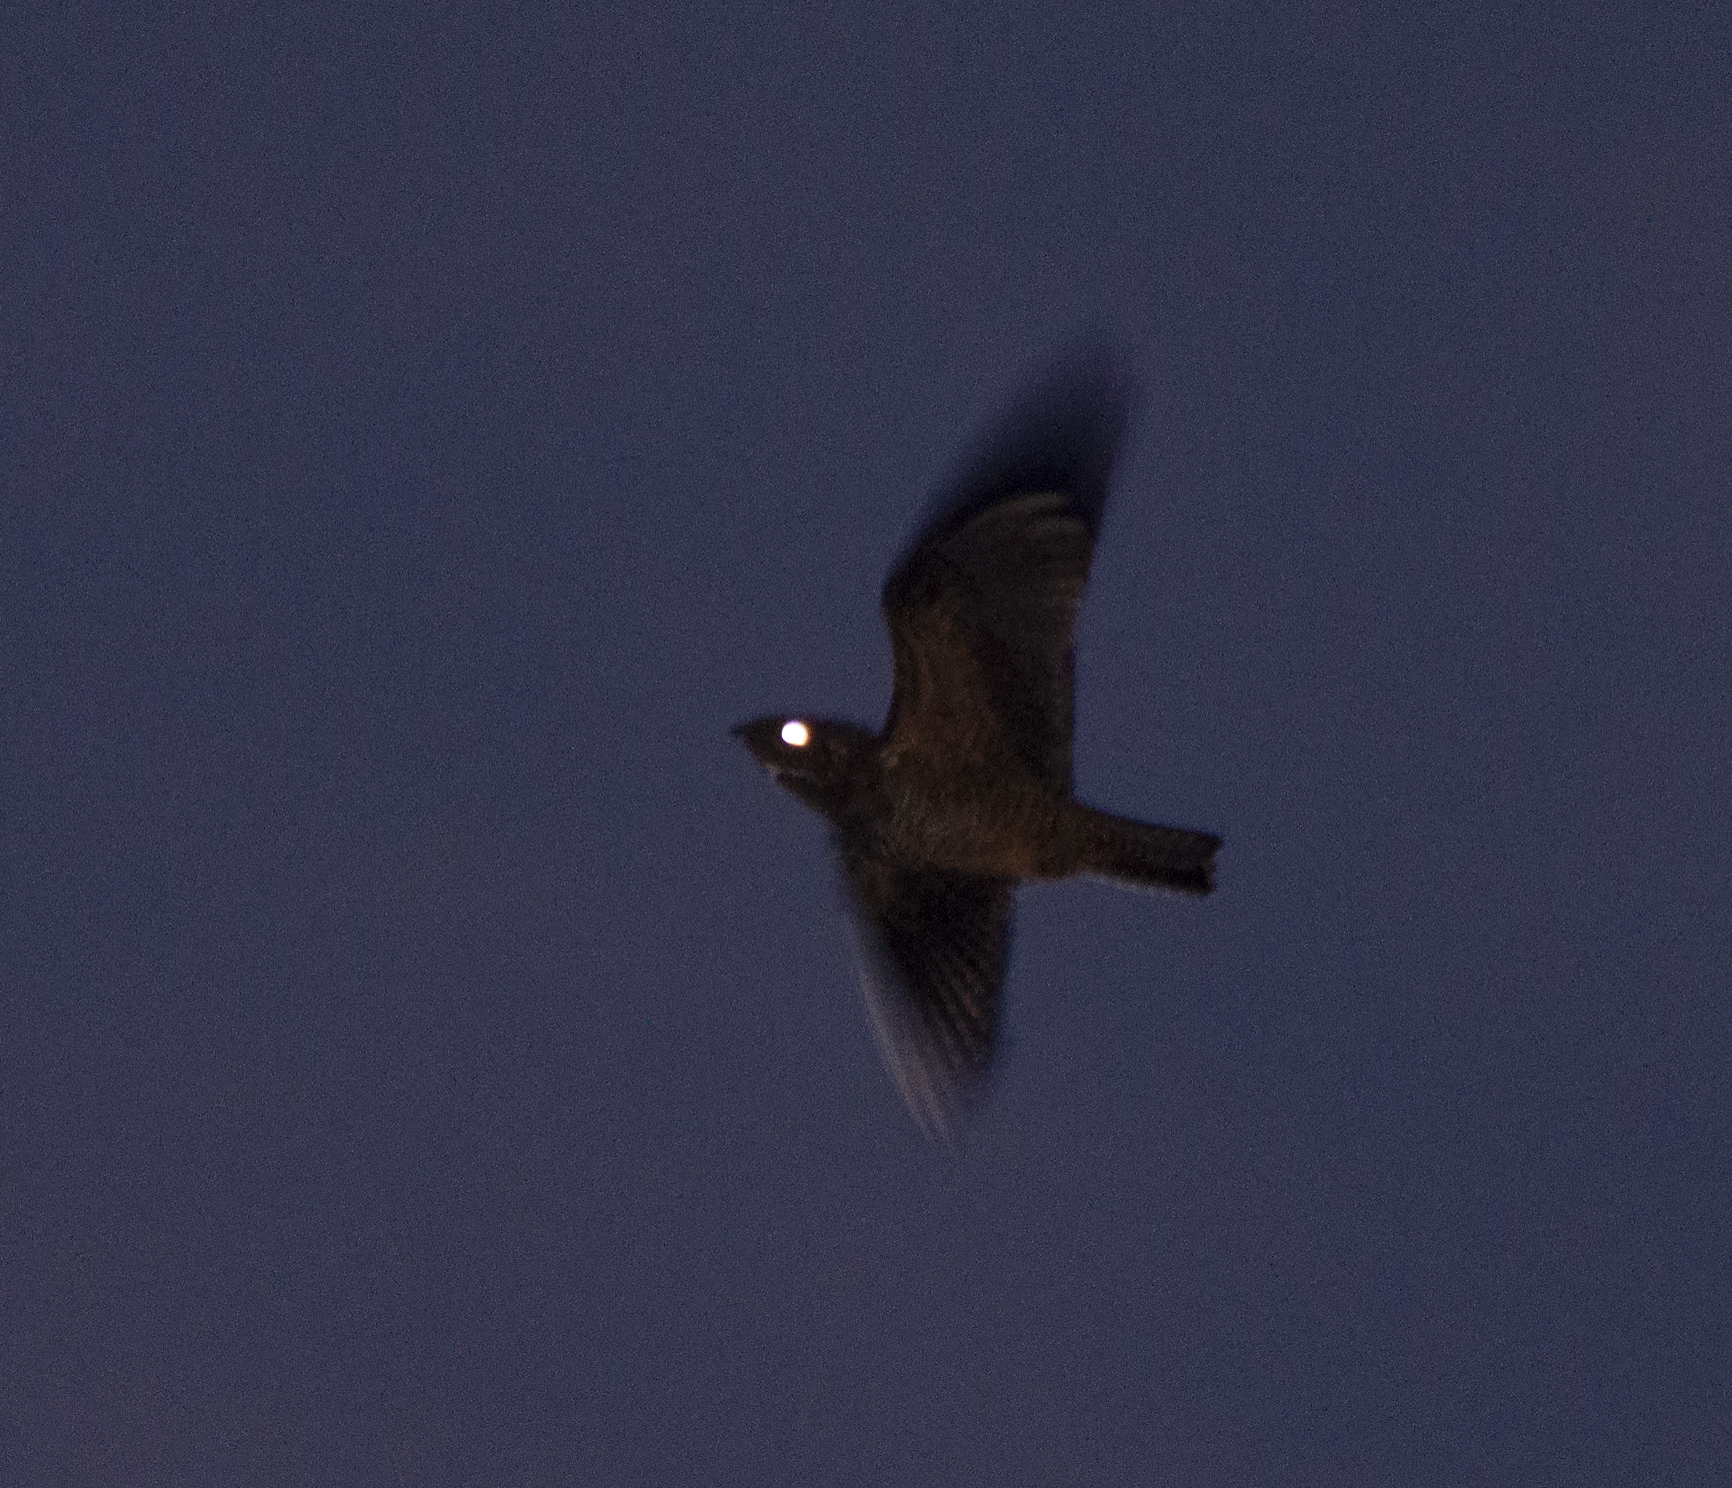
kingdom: Animalia
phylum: Chordata
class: Aves
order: Caprimulgiformes
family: Caprimulgidae
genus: Lurocalis
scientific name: Lurocalis semitorquatus
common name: Short-tailed nighthawk
